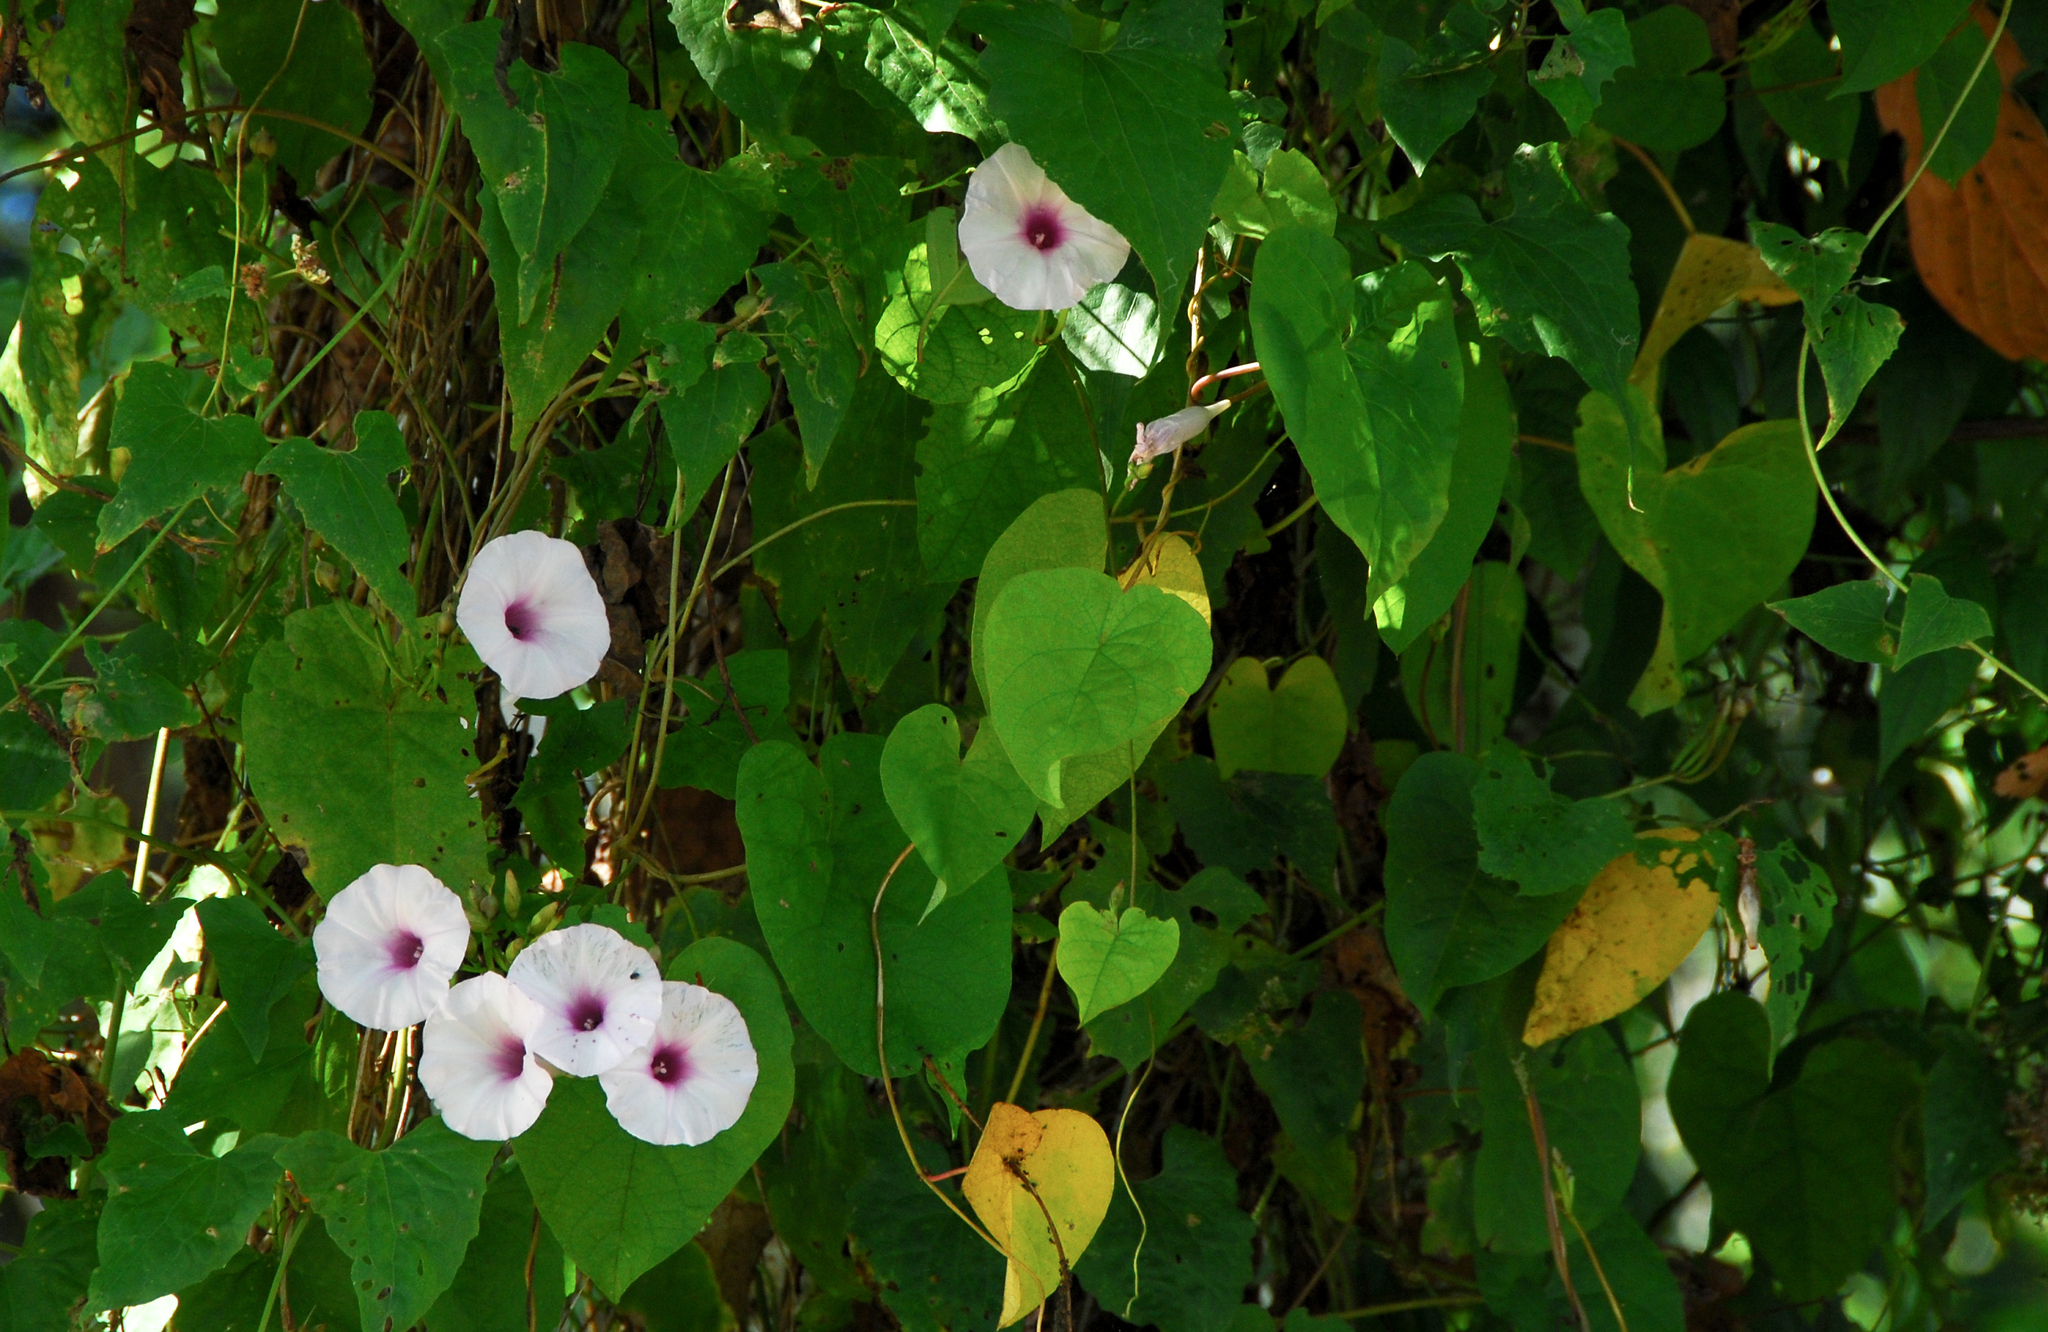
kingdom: Plantae
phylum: Tracheophyta
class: Magnoliopsida
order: Solanales
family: Convolvulaceae
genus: Ipomoea
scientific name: Ipomoea batatas
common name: Sweet-potato
